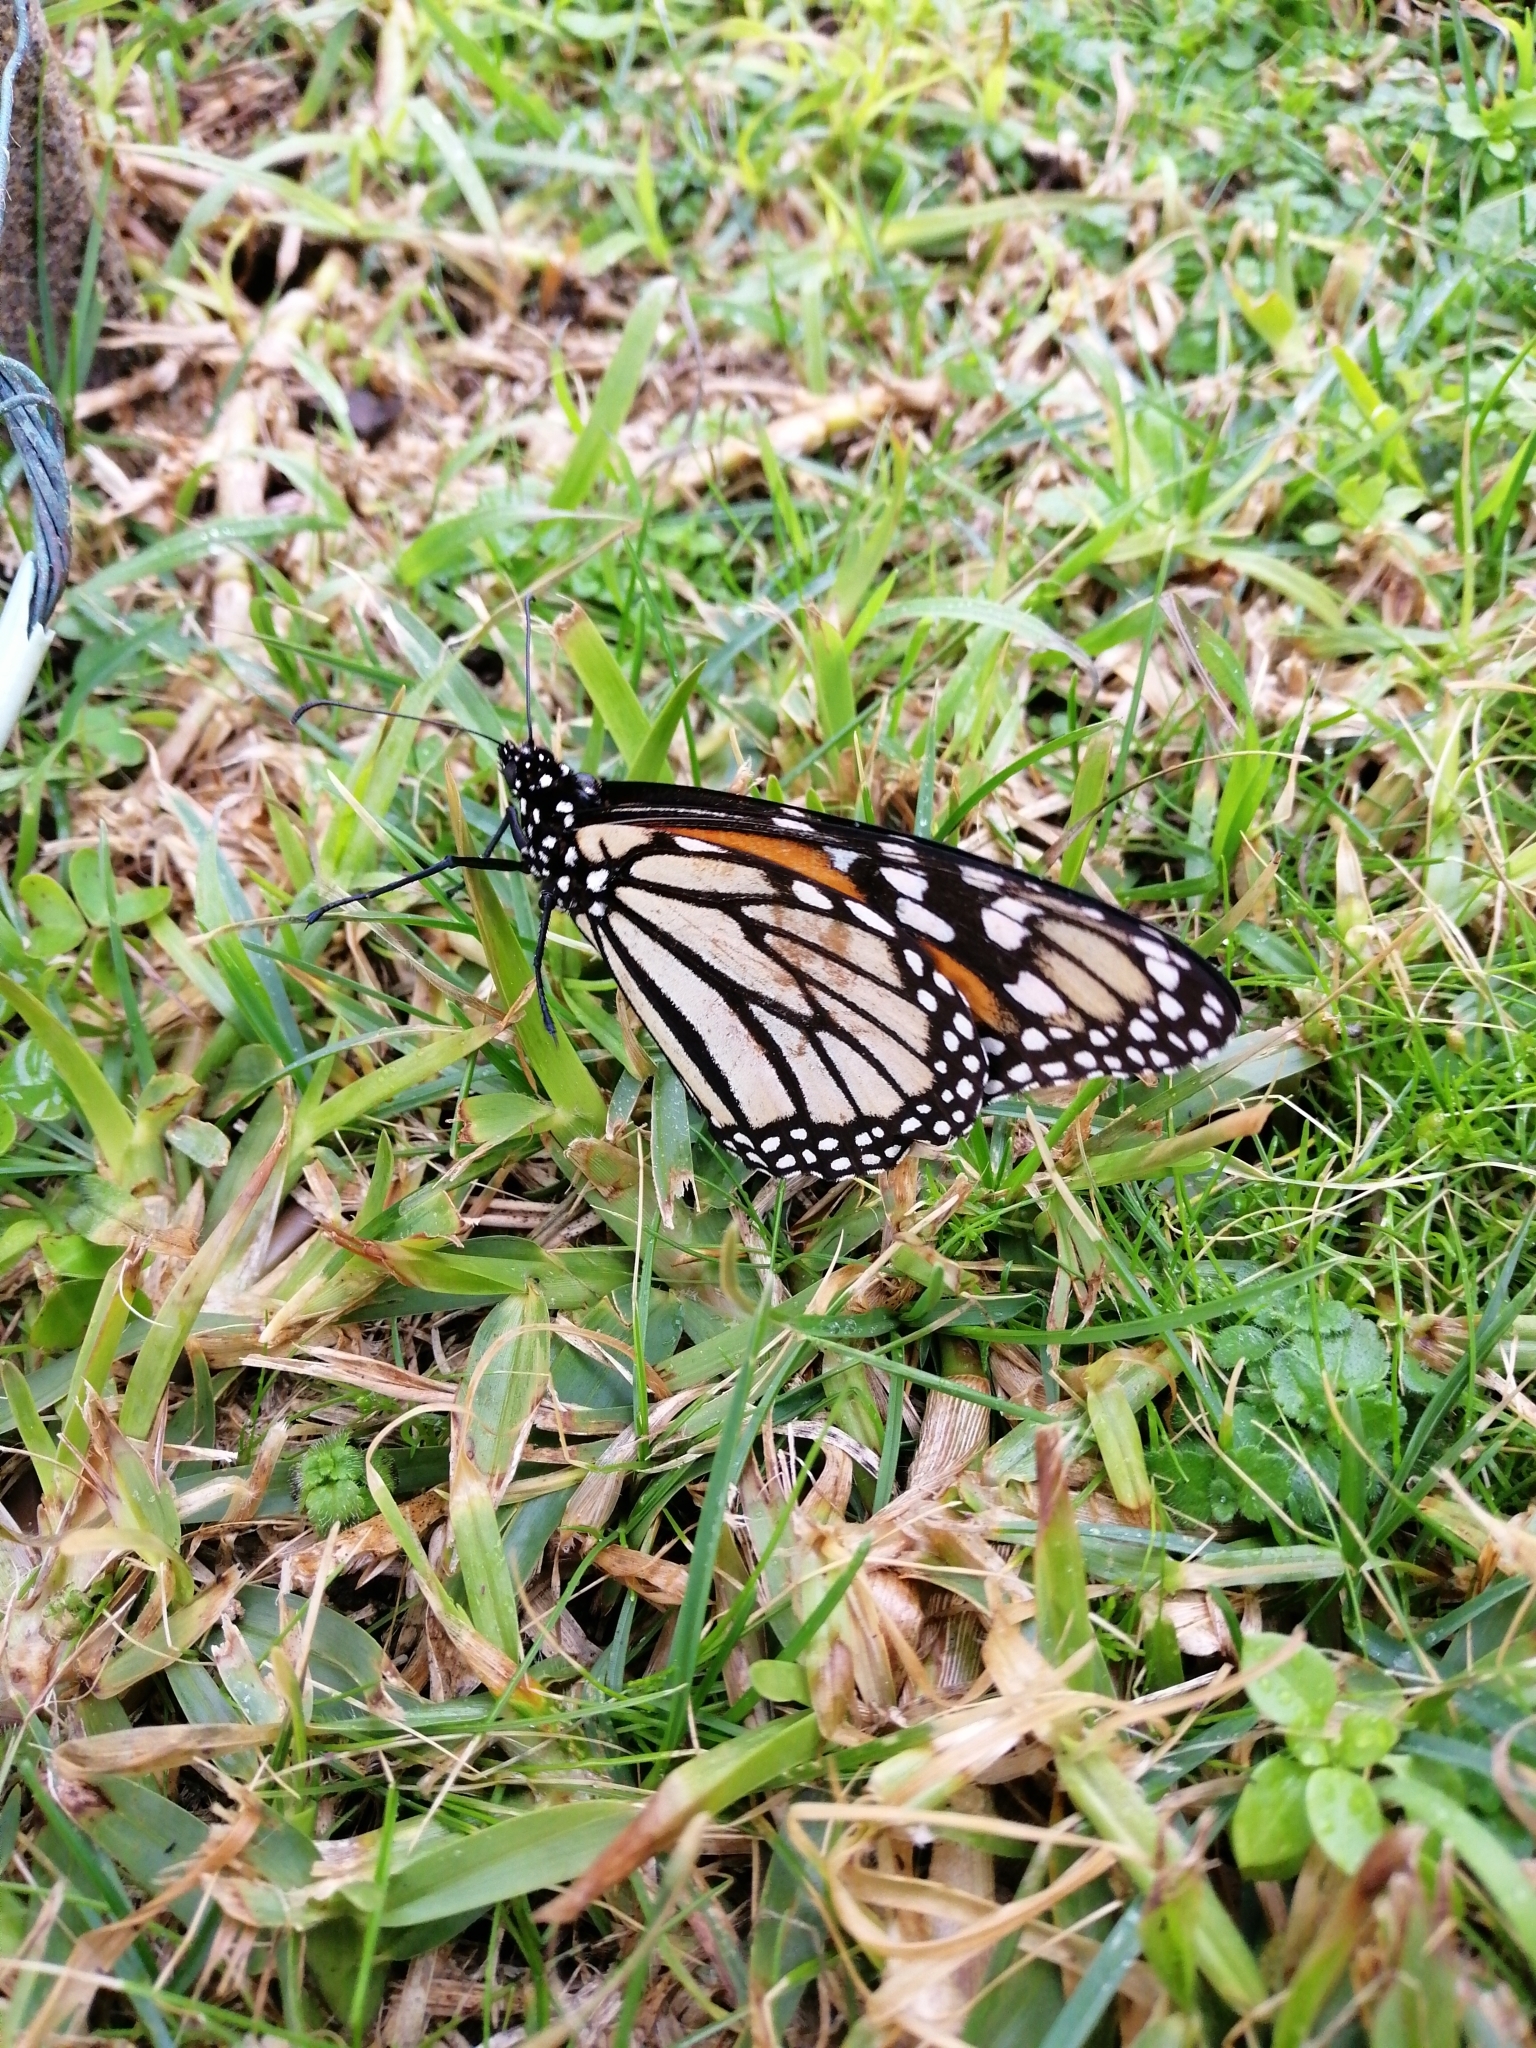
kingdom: Animalia
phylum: Arthropoda
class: Insecta
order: Lepidoptera
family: Nymphalidae
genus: Danaus
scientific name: Danaus plexippus
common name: Monarch
